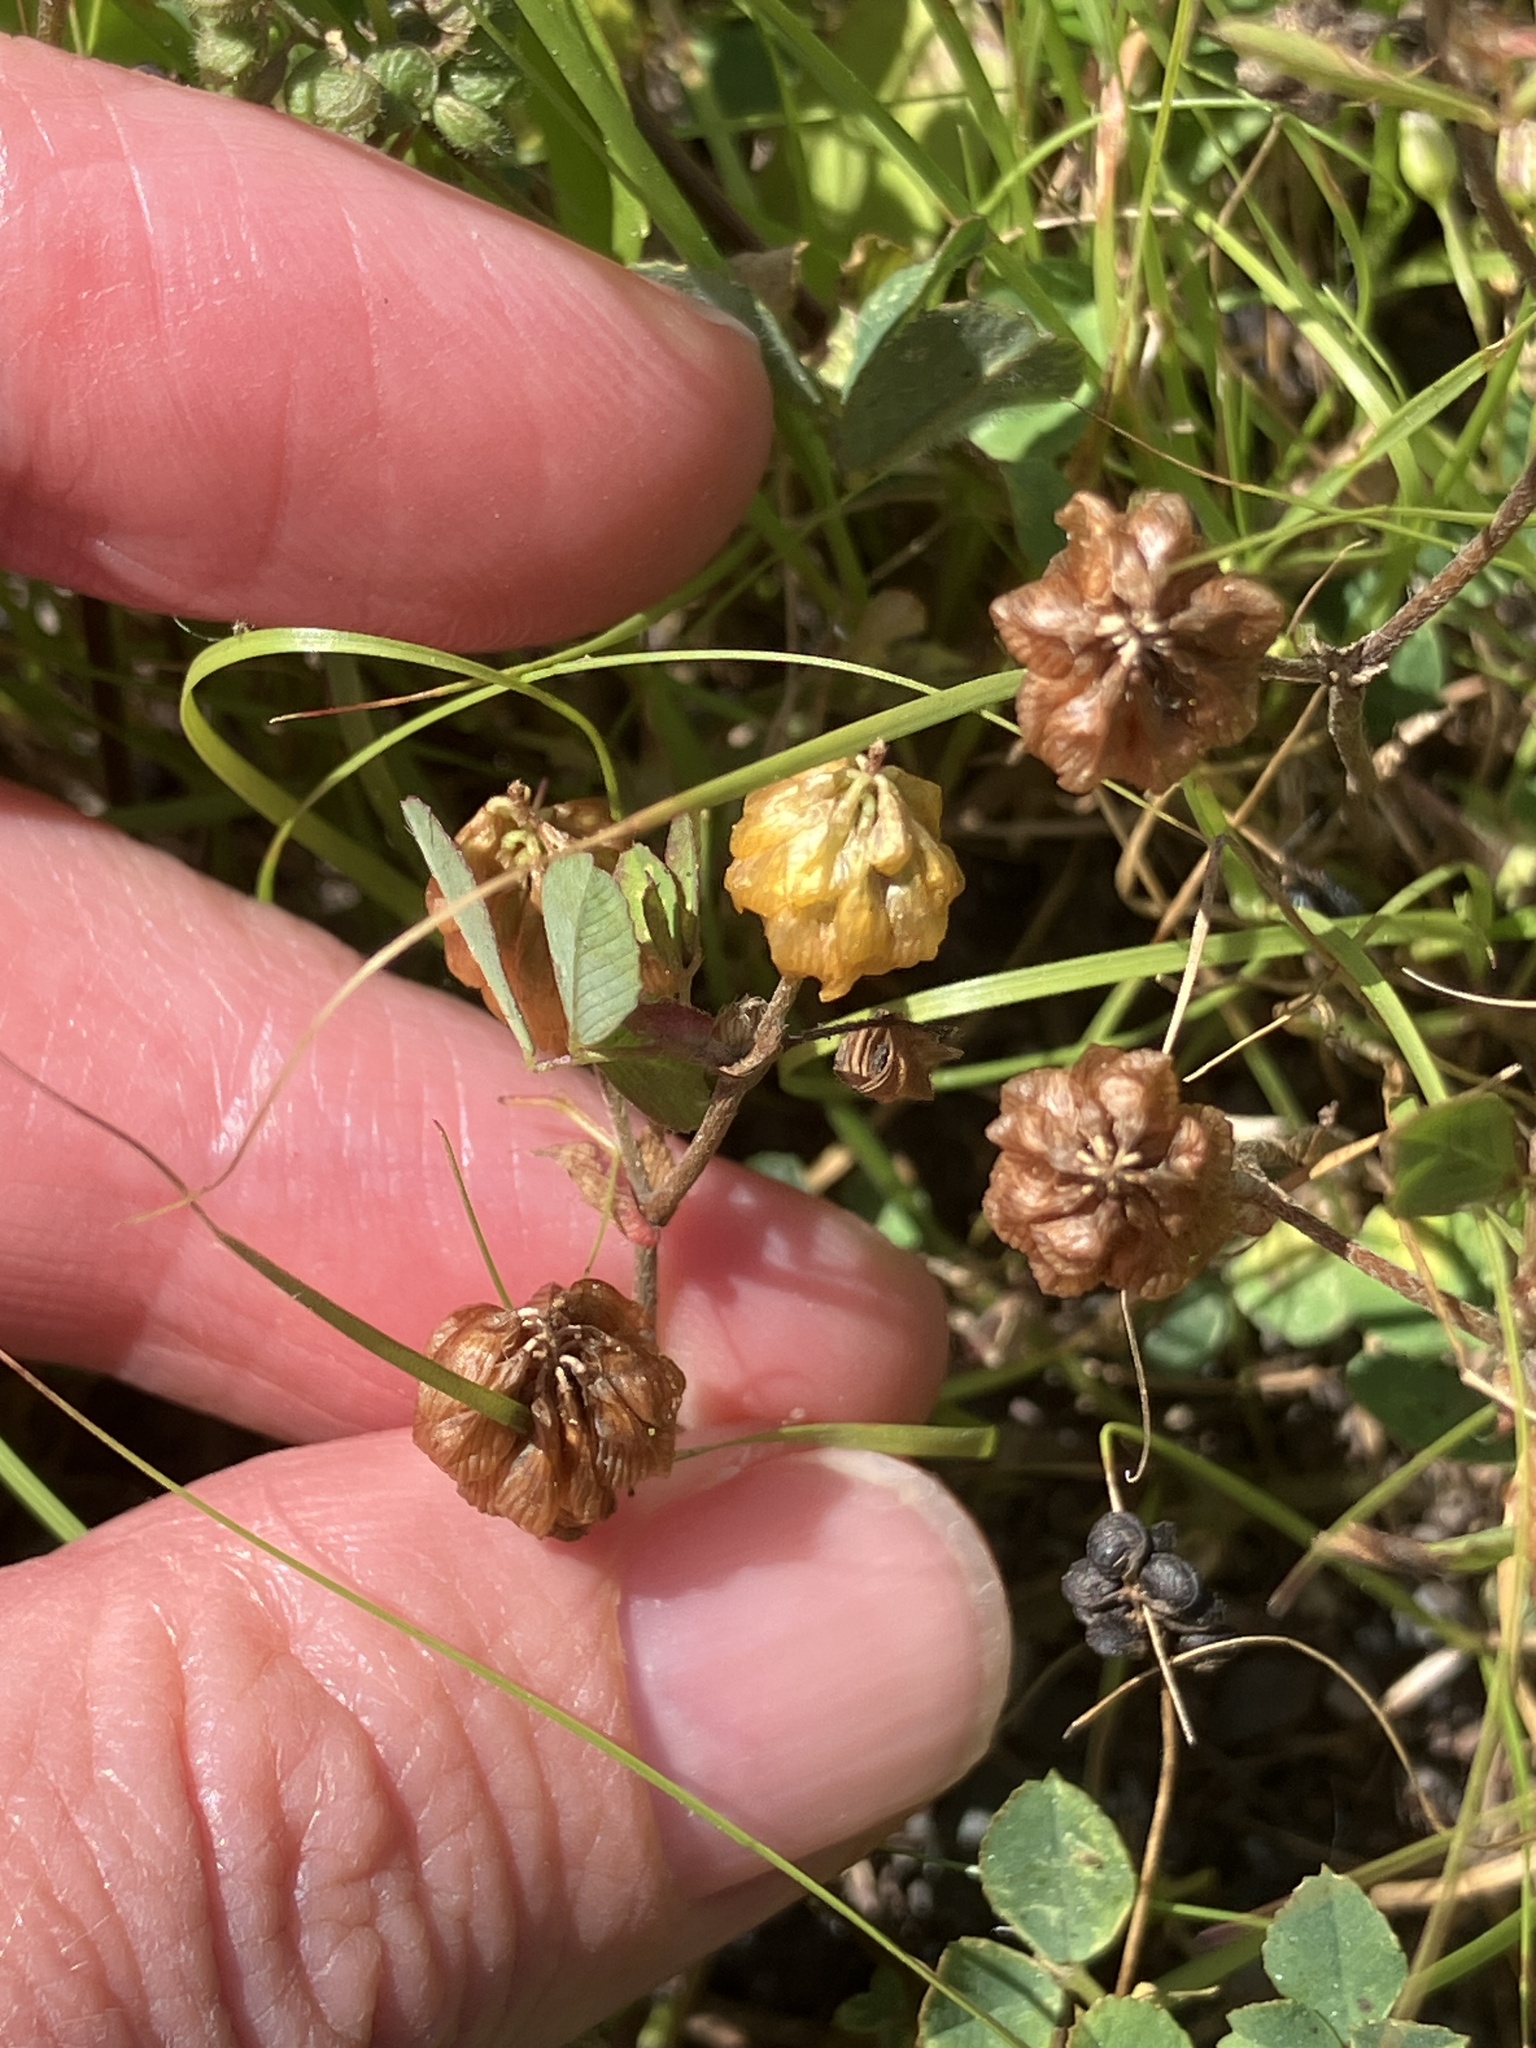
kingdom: Plantae
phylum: Tracheophyta
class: Magnoliopsida
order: Fabales
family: Fabaceae
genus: Trifolium
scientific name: Trifolium campestre
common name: Field clover
